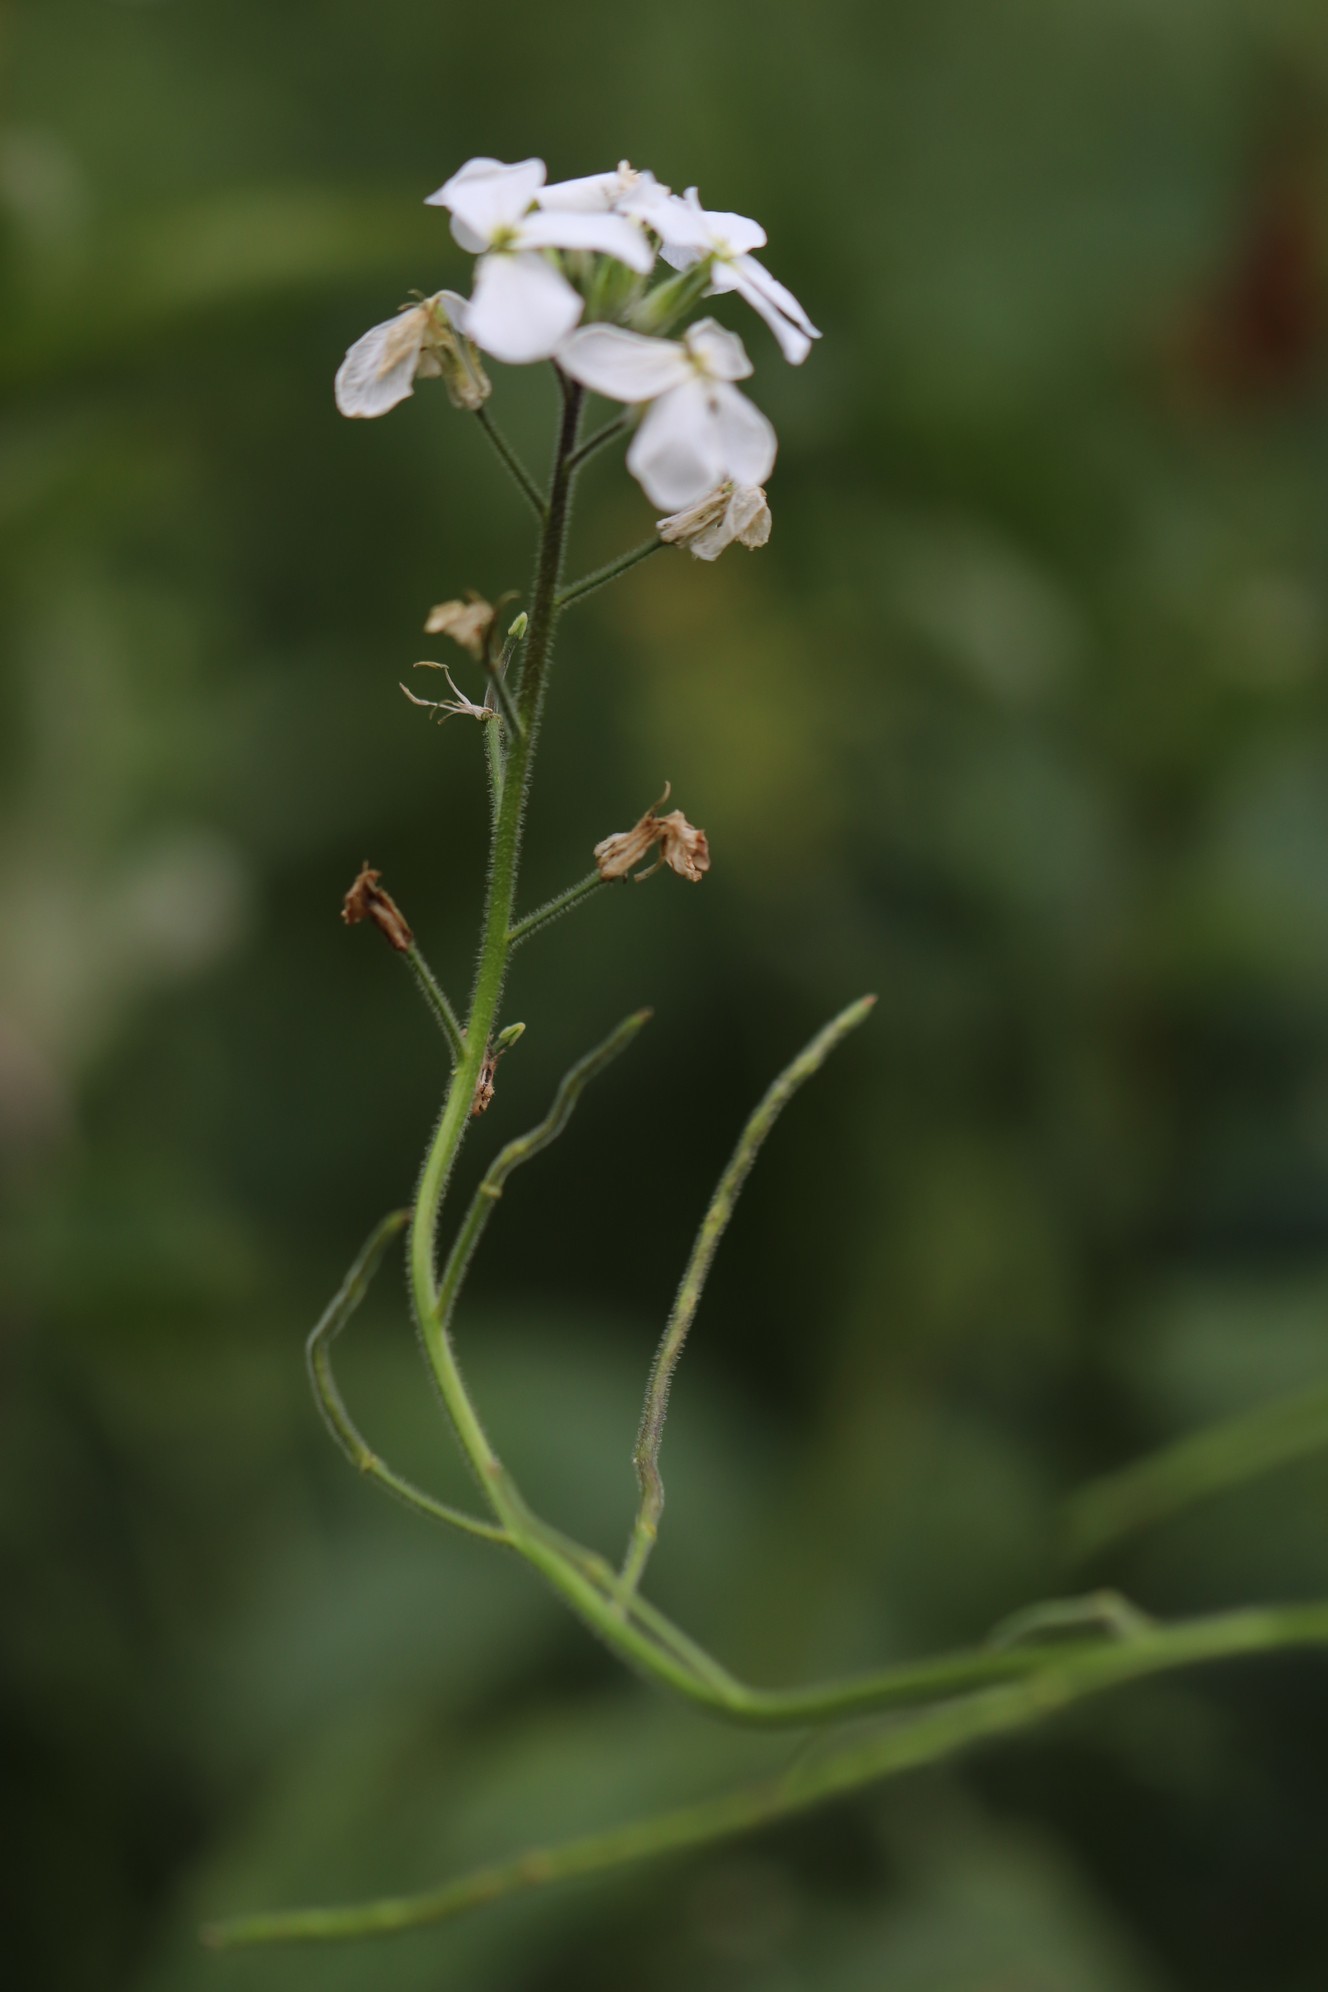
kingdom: Plantae
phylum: Tracheophyta
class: Magnoliopsida
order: Brassicales
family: Brassicaceae
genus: Hesperis
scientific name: Hesperis sibirica
